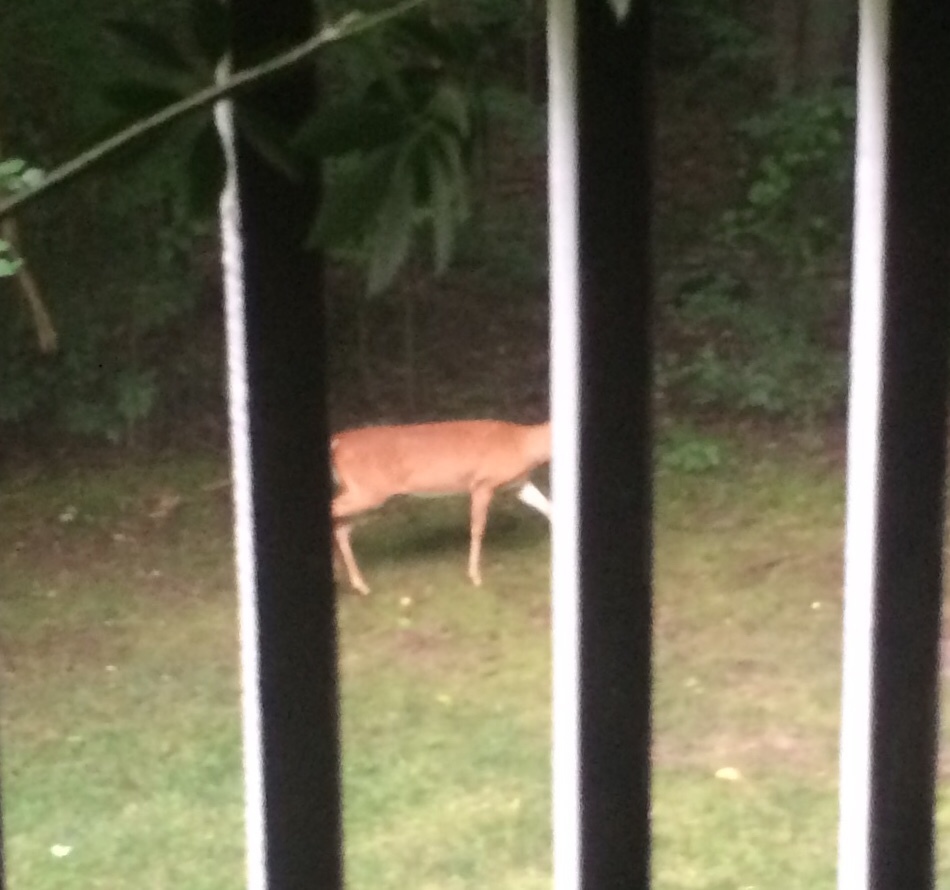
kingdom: Animalia
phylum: Chordata
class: Mammalia
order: Artiodactyla
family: Cervidae
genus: Odocoileus
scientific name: Odocoileus virginianus
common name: White-tailed deer
